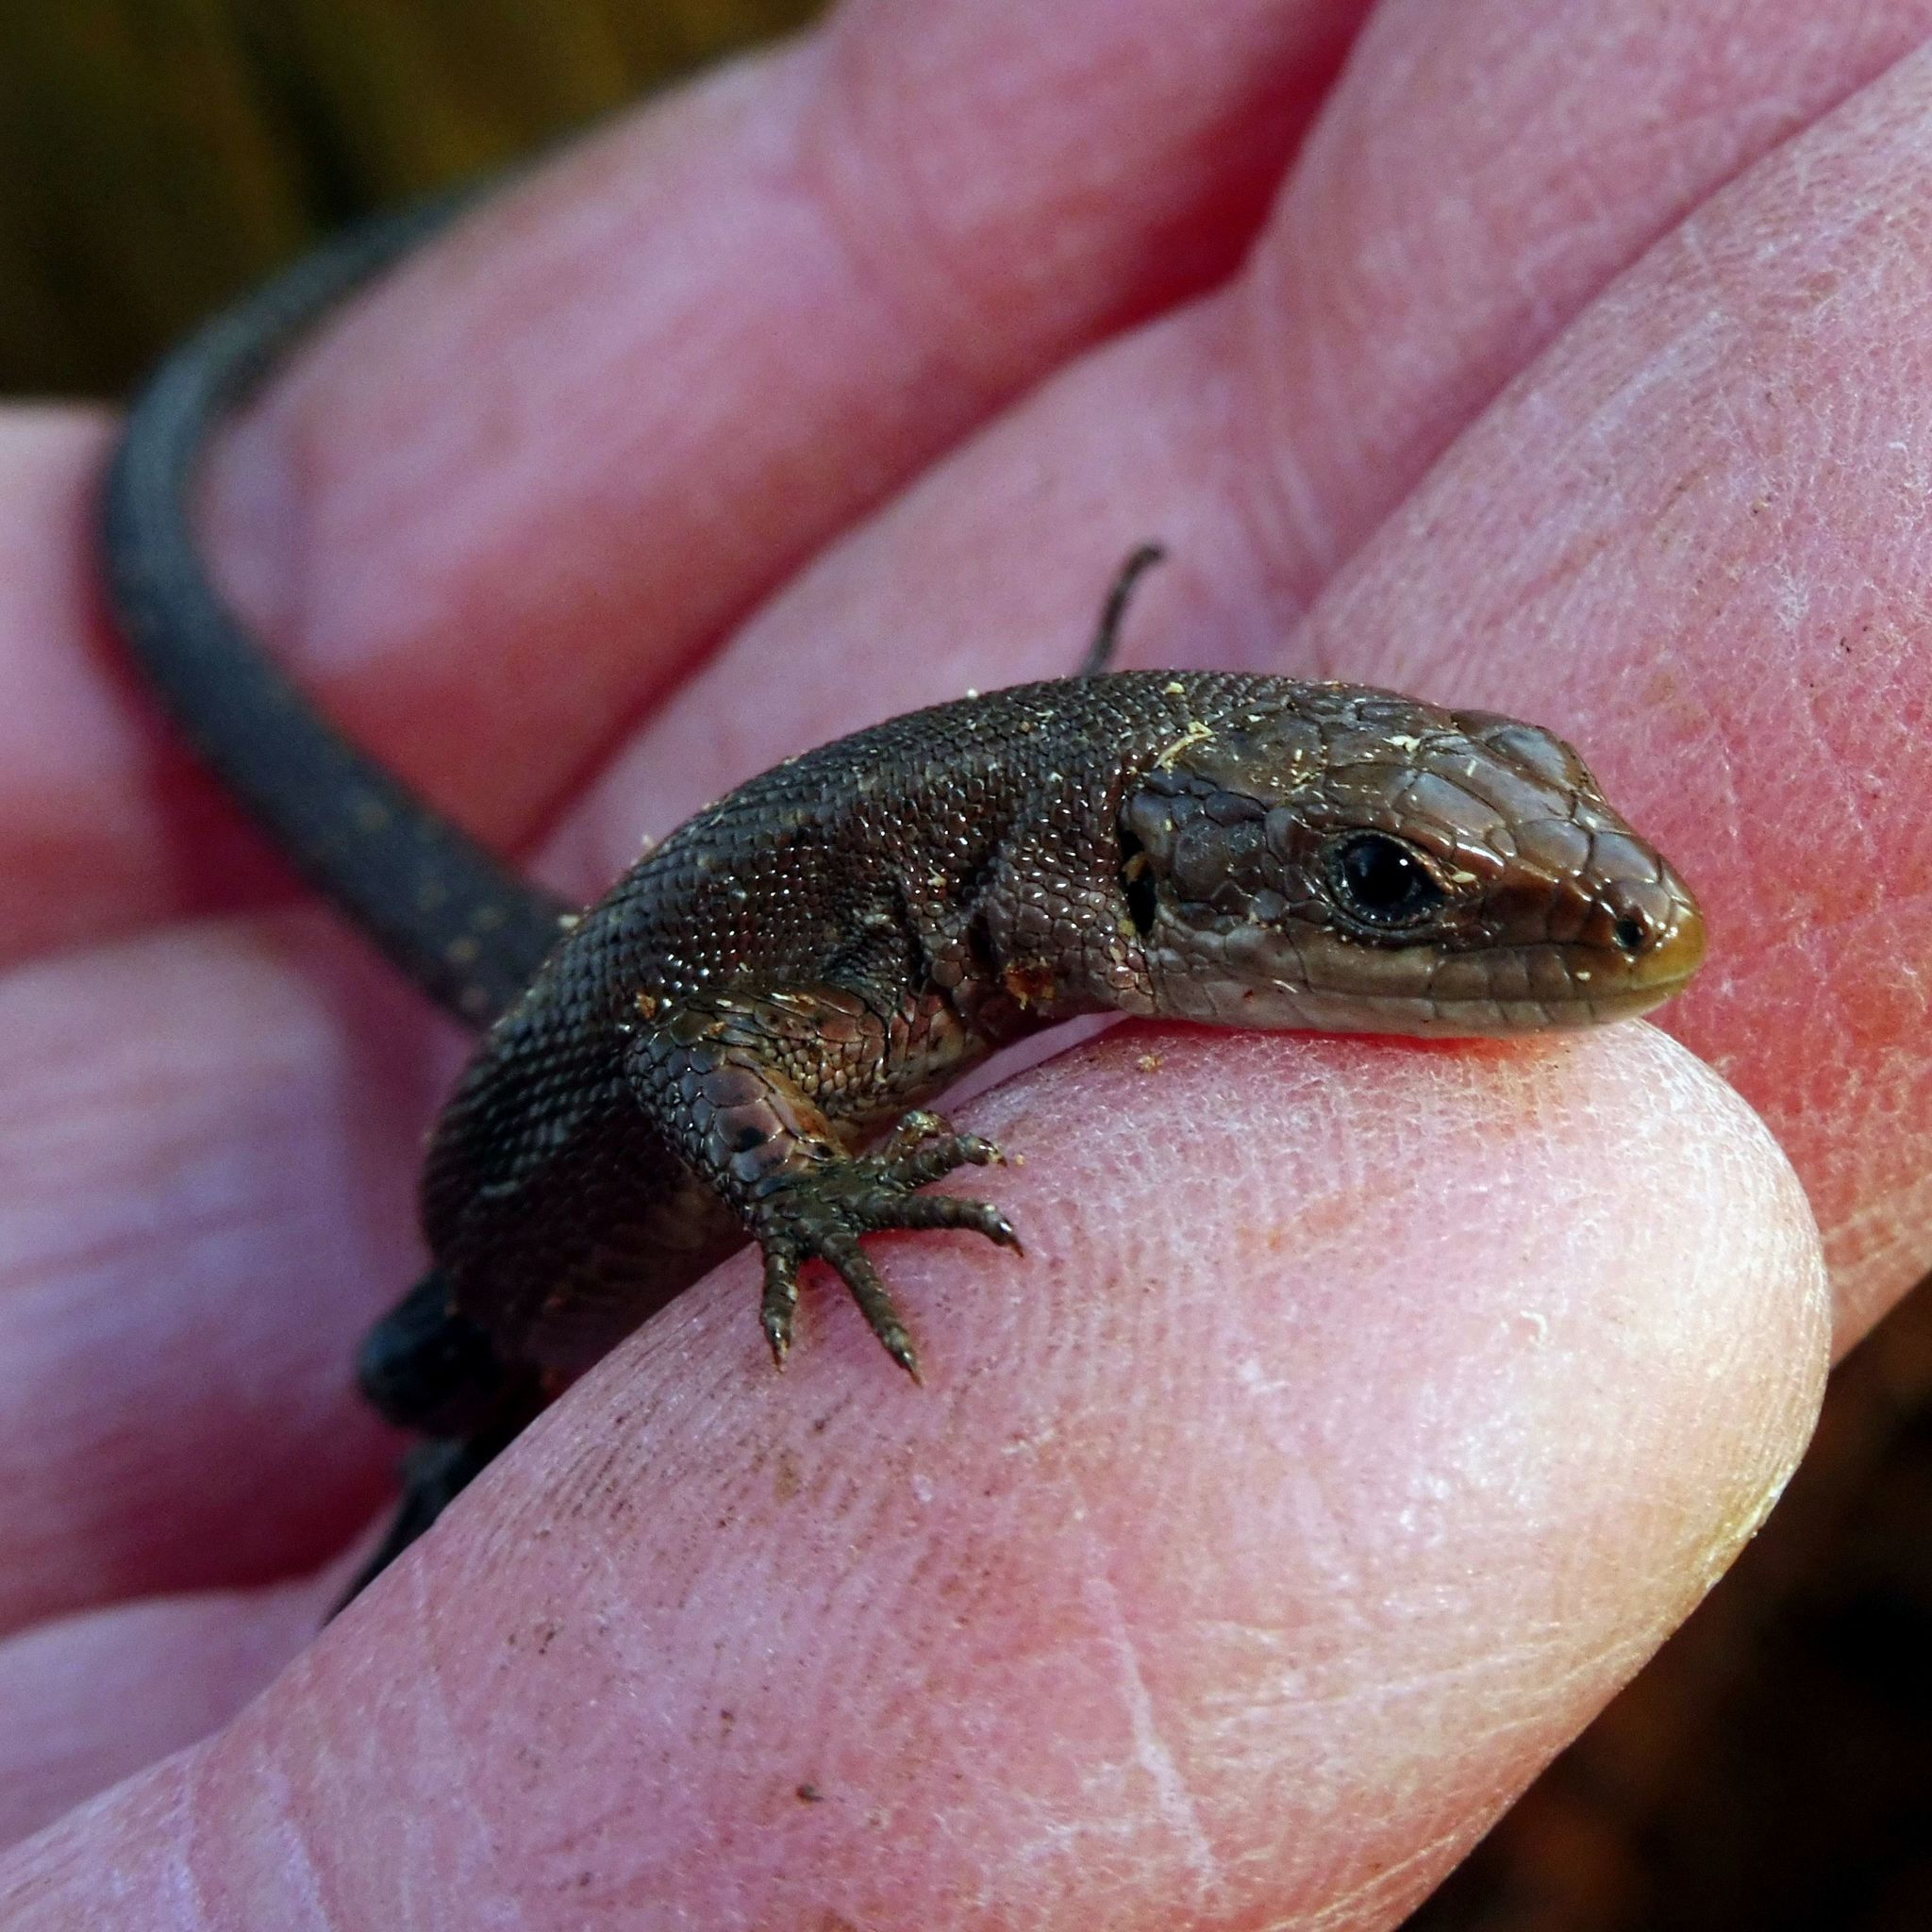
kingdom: Animalia
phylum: Chordata
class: Squamata
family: Lacertidae
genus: Zootoca
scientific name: Zootoca vivipara
